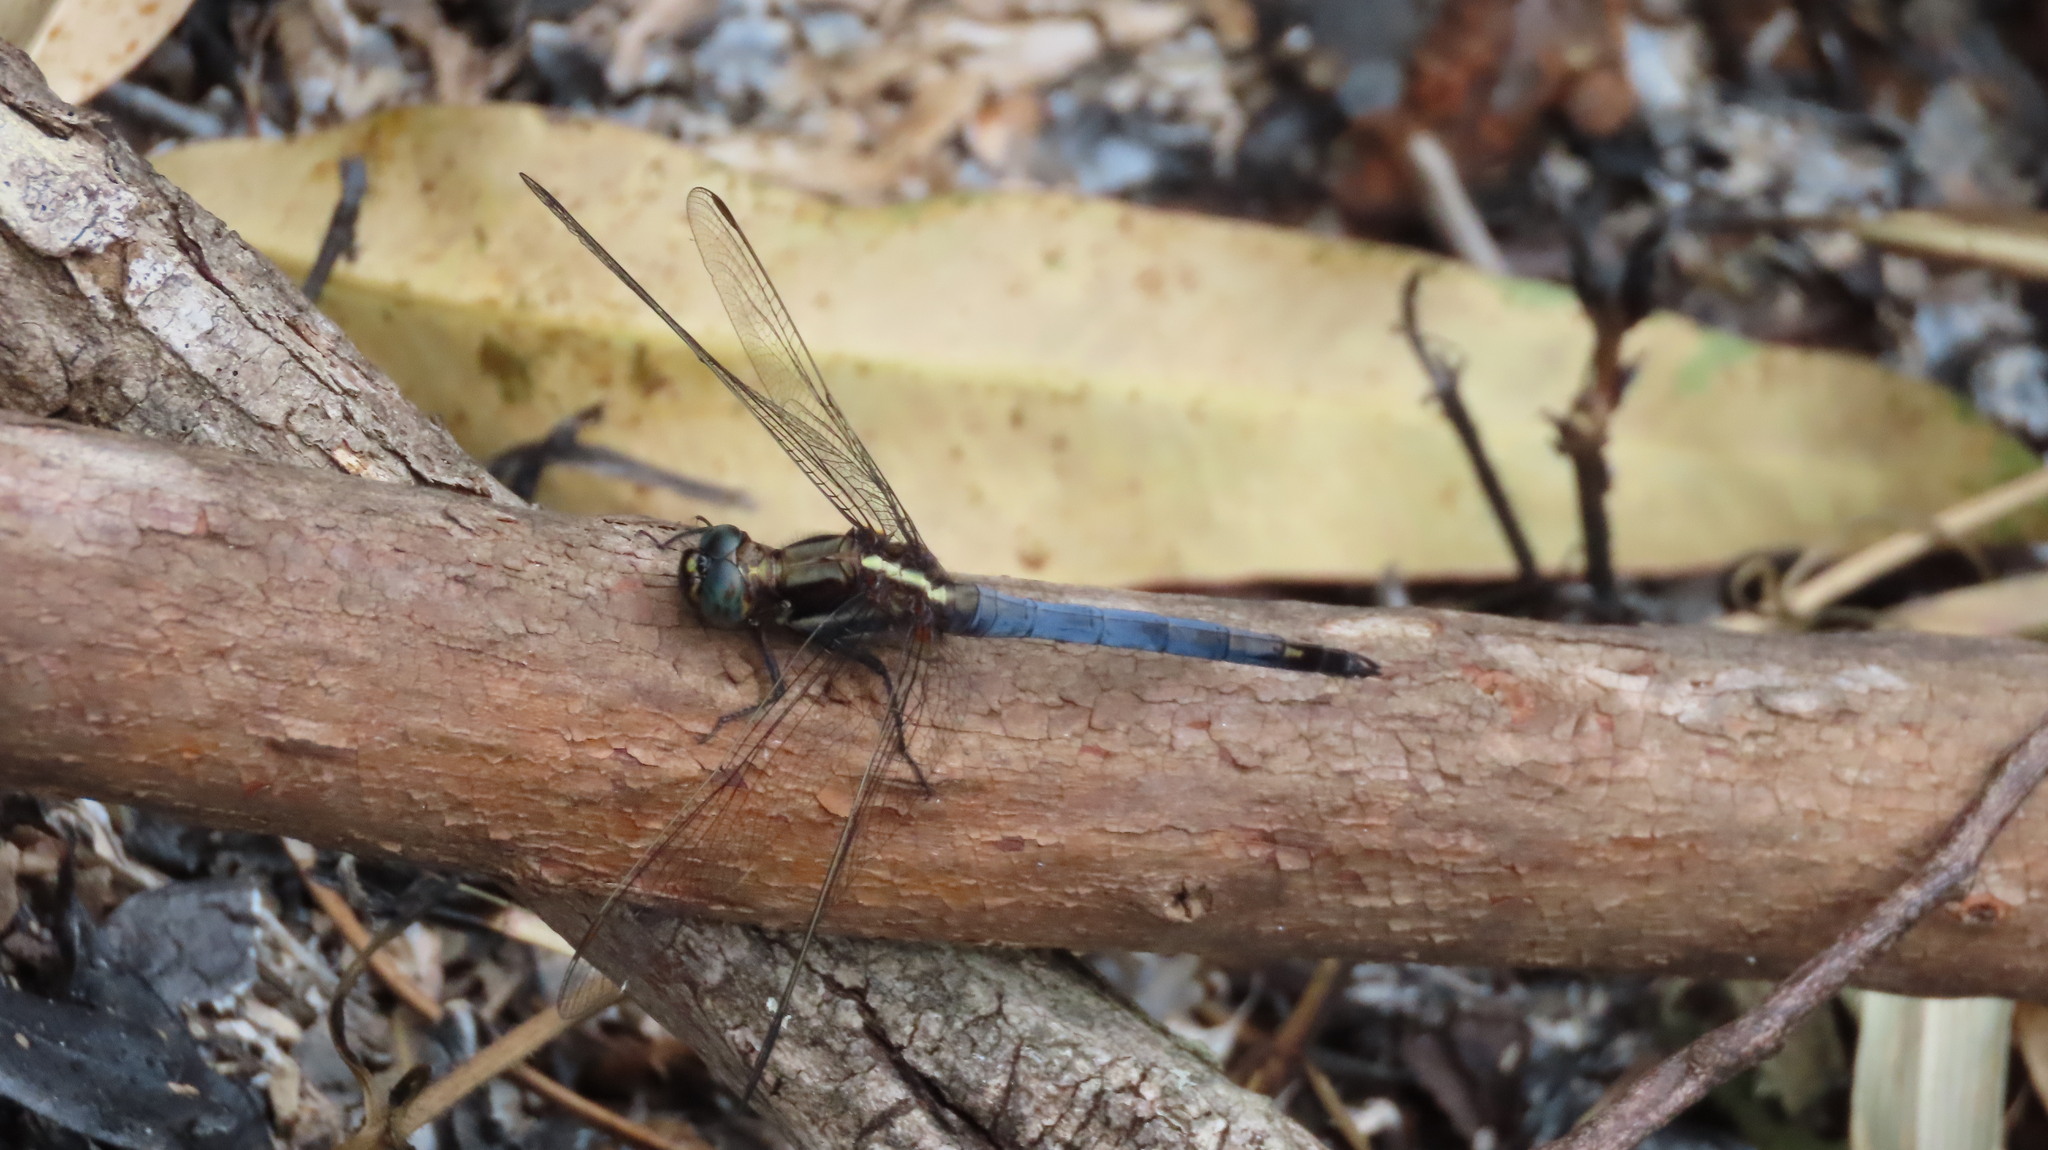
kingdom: Animalia
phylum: Arthropoda
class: Insecta
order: Odonata
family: Libellulidae
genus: Orthetrum
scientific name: Orthetrum glaucum
